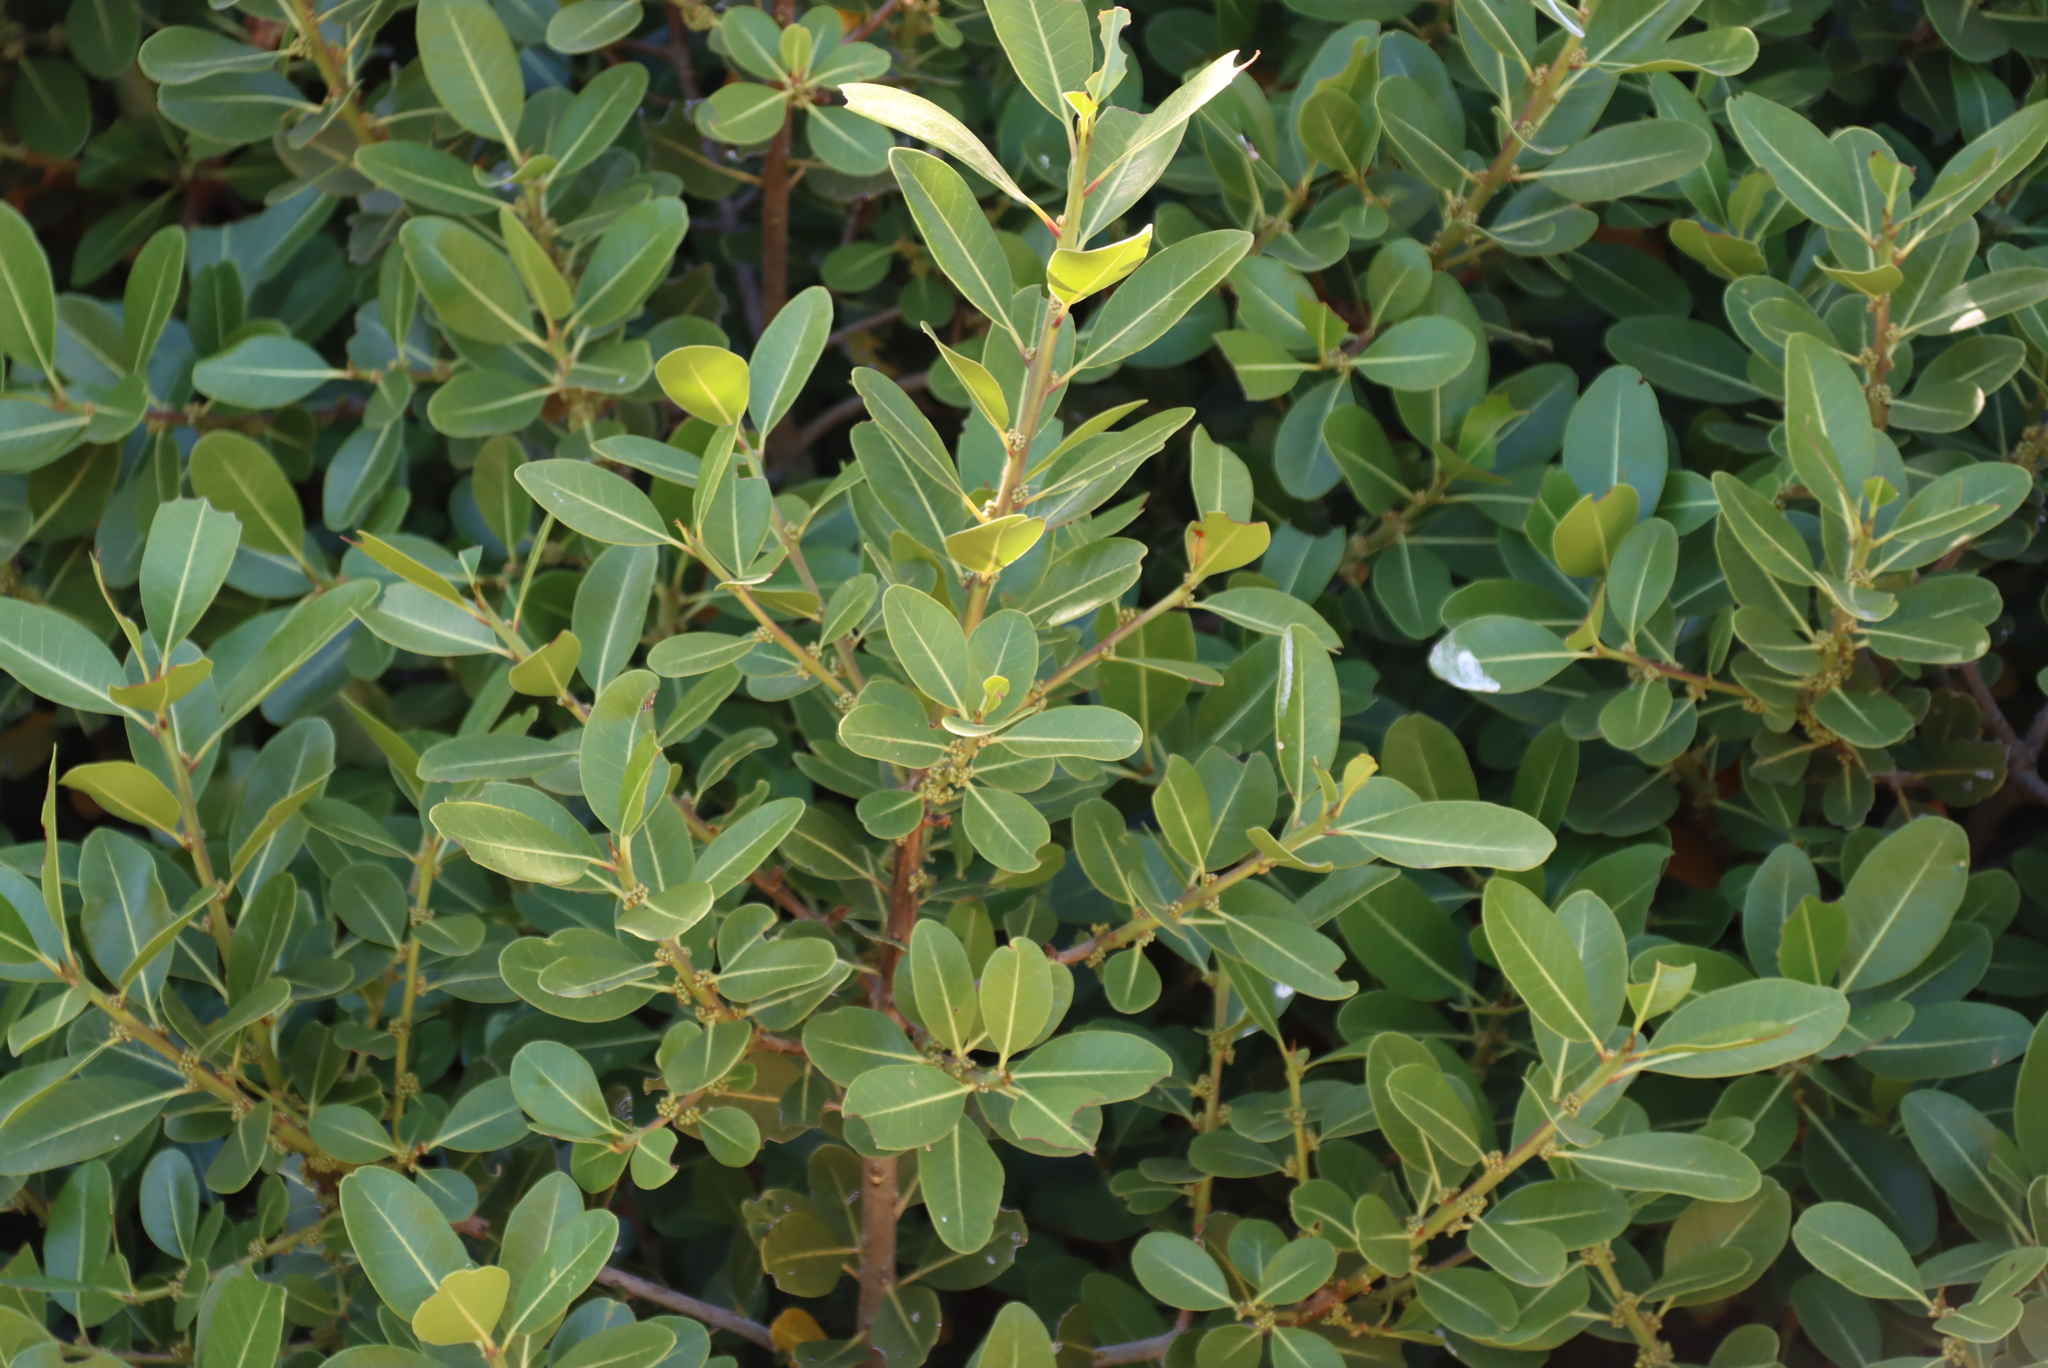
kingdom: Plantae
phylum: Tracheophyta
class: Magnoliopsida
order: Ericales
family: Sapotaceae
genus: Sideroxylon
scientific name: Sideroxylon inerme
